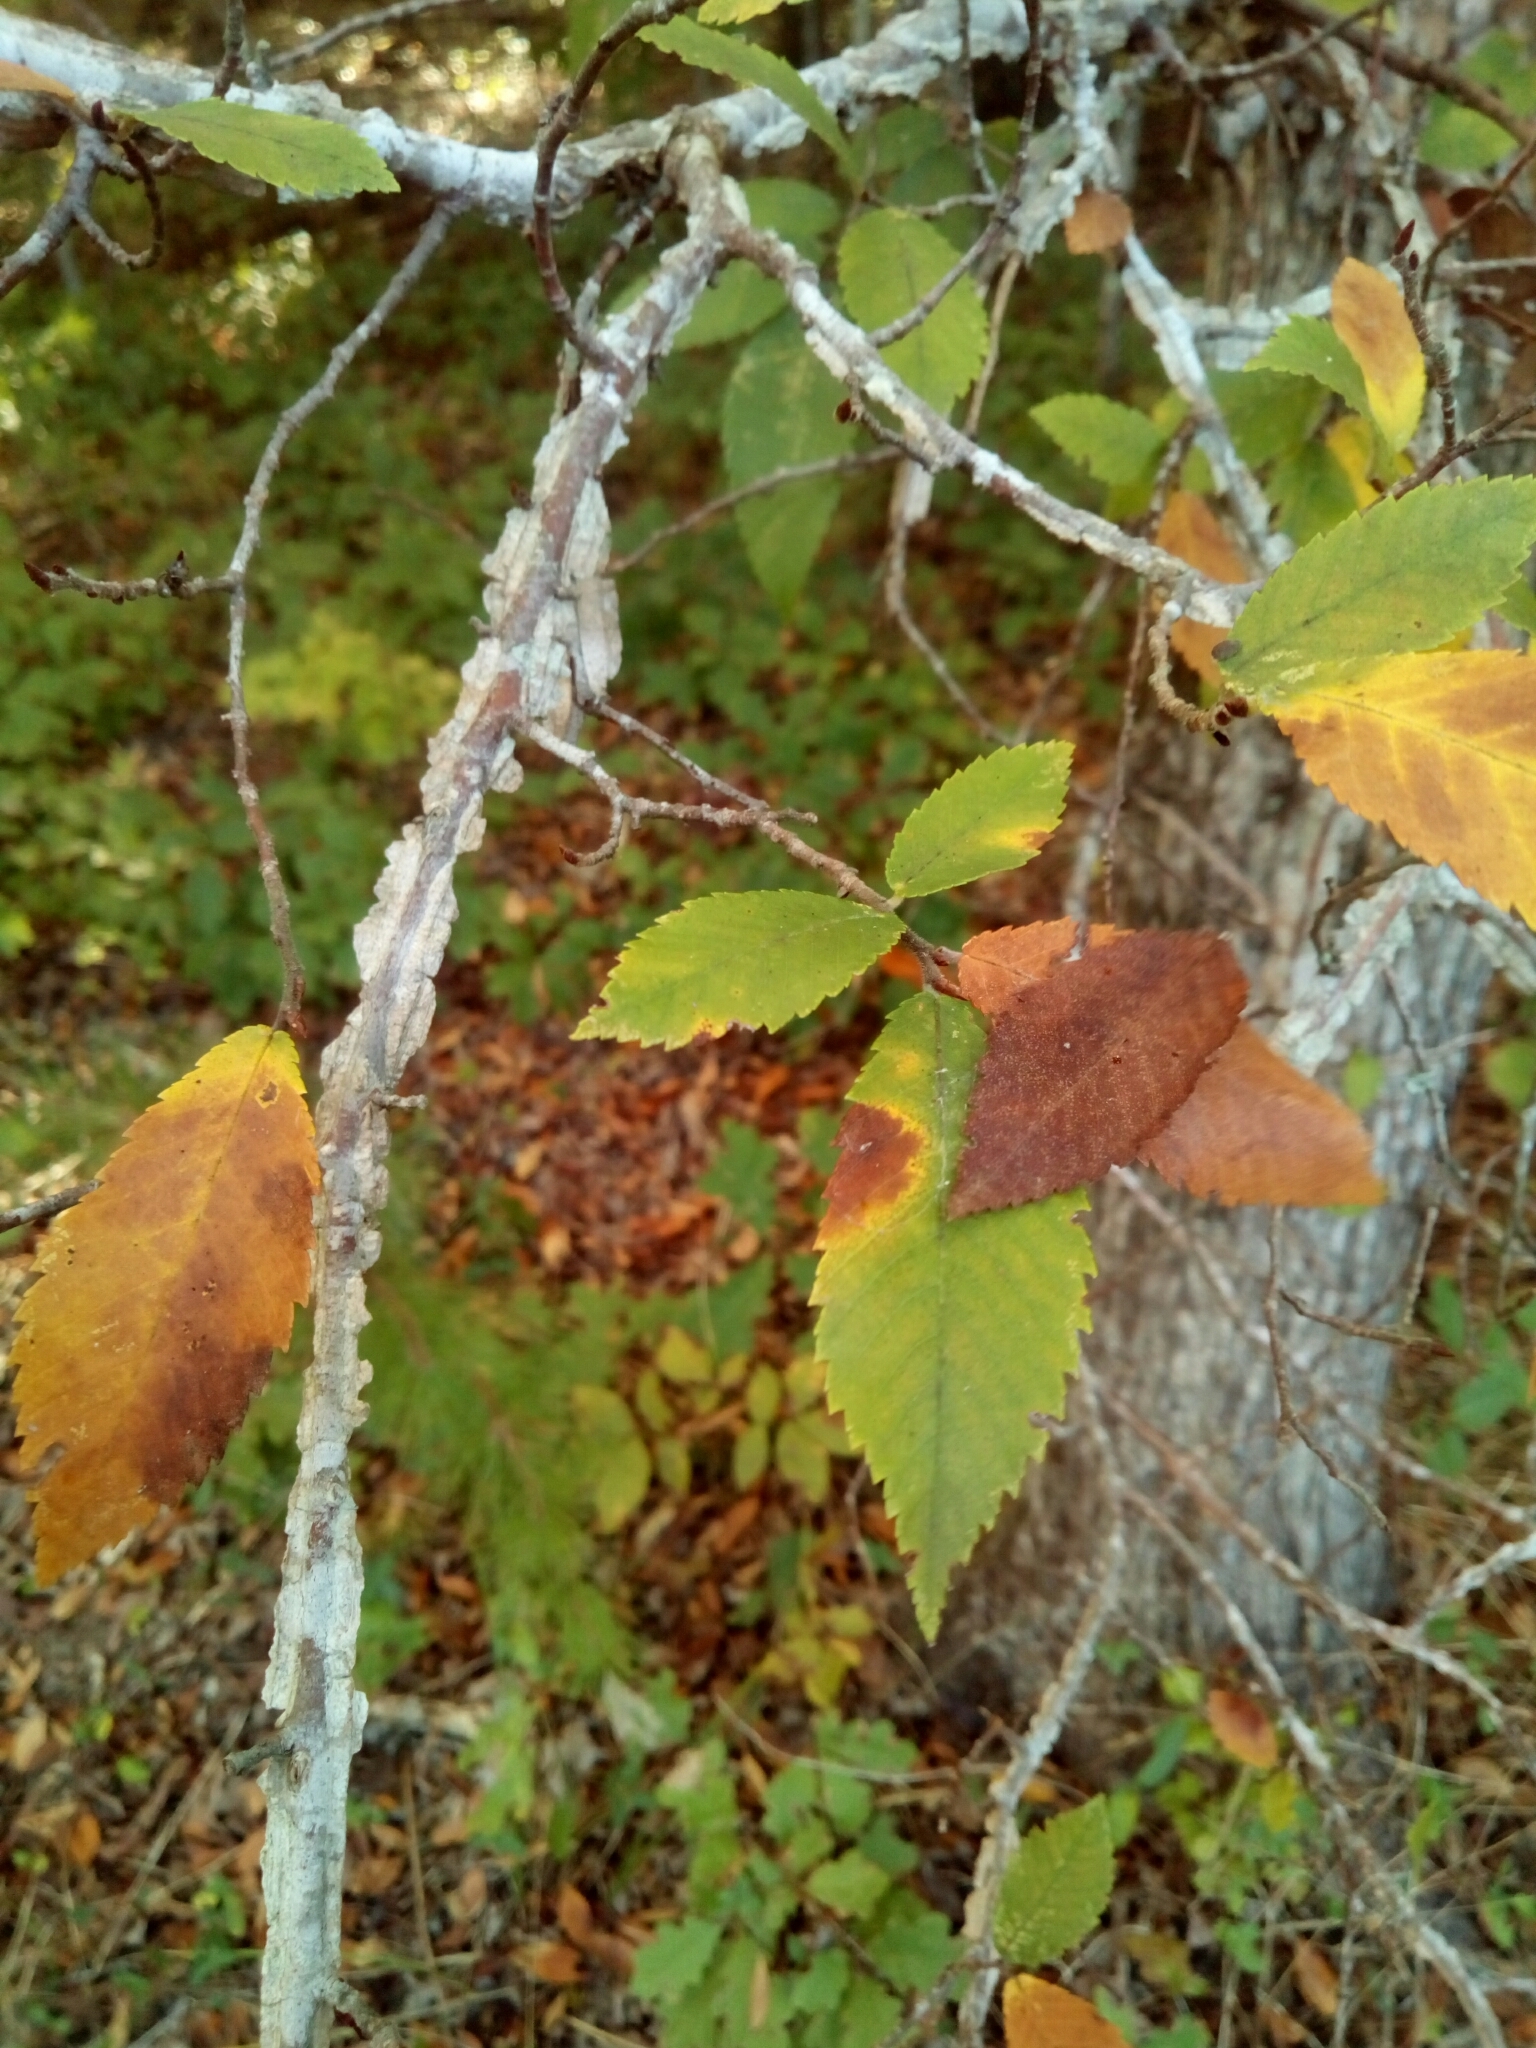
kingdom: Plantae
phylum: Tracheophyta
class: Magnoliopsida
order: Rosales
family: Ulmaceae
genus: Ulmus
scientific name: Ulmus alata
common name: Winged elm
